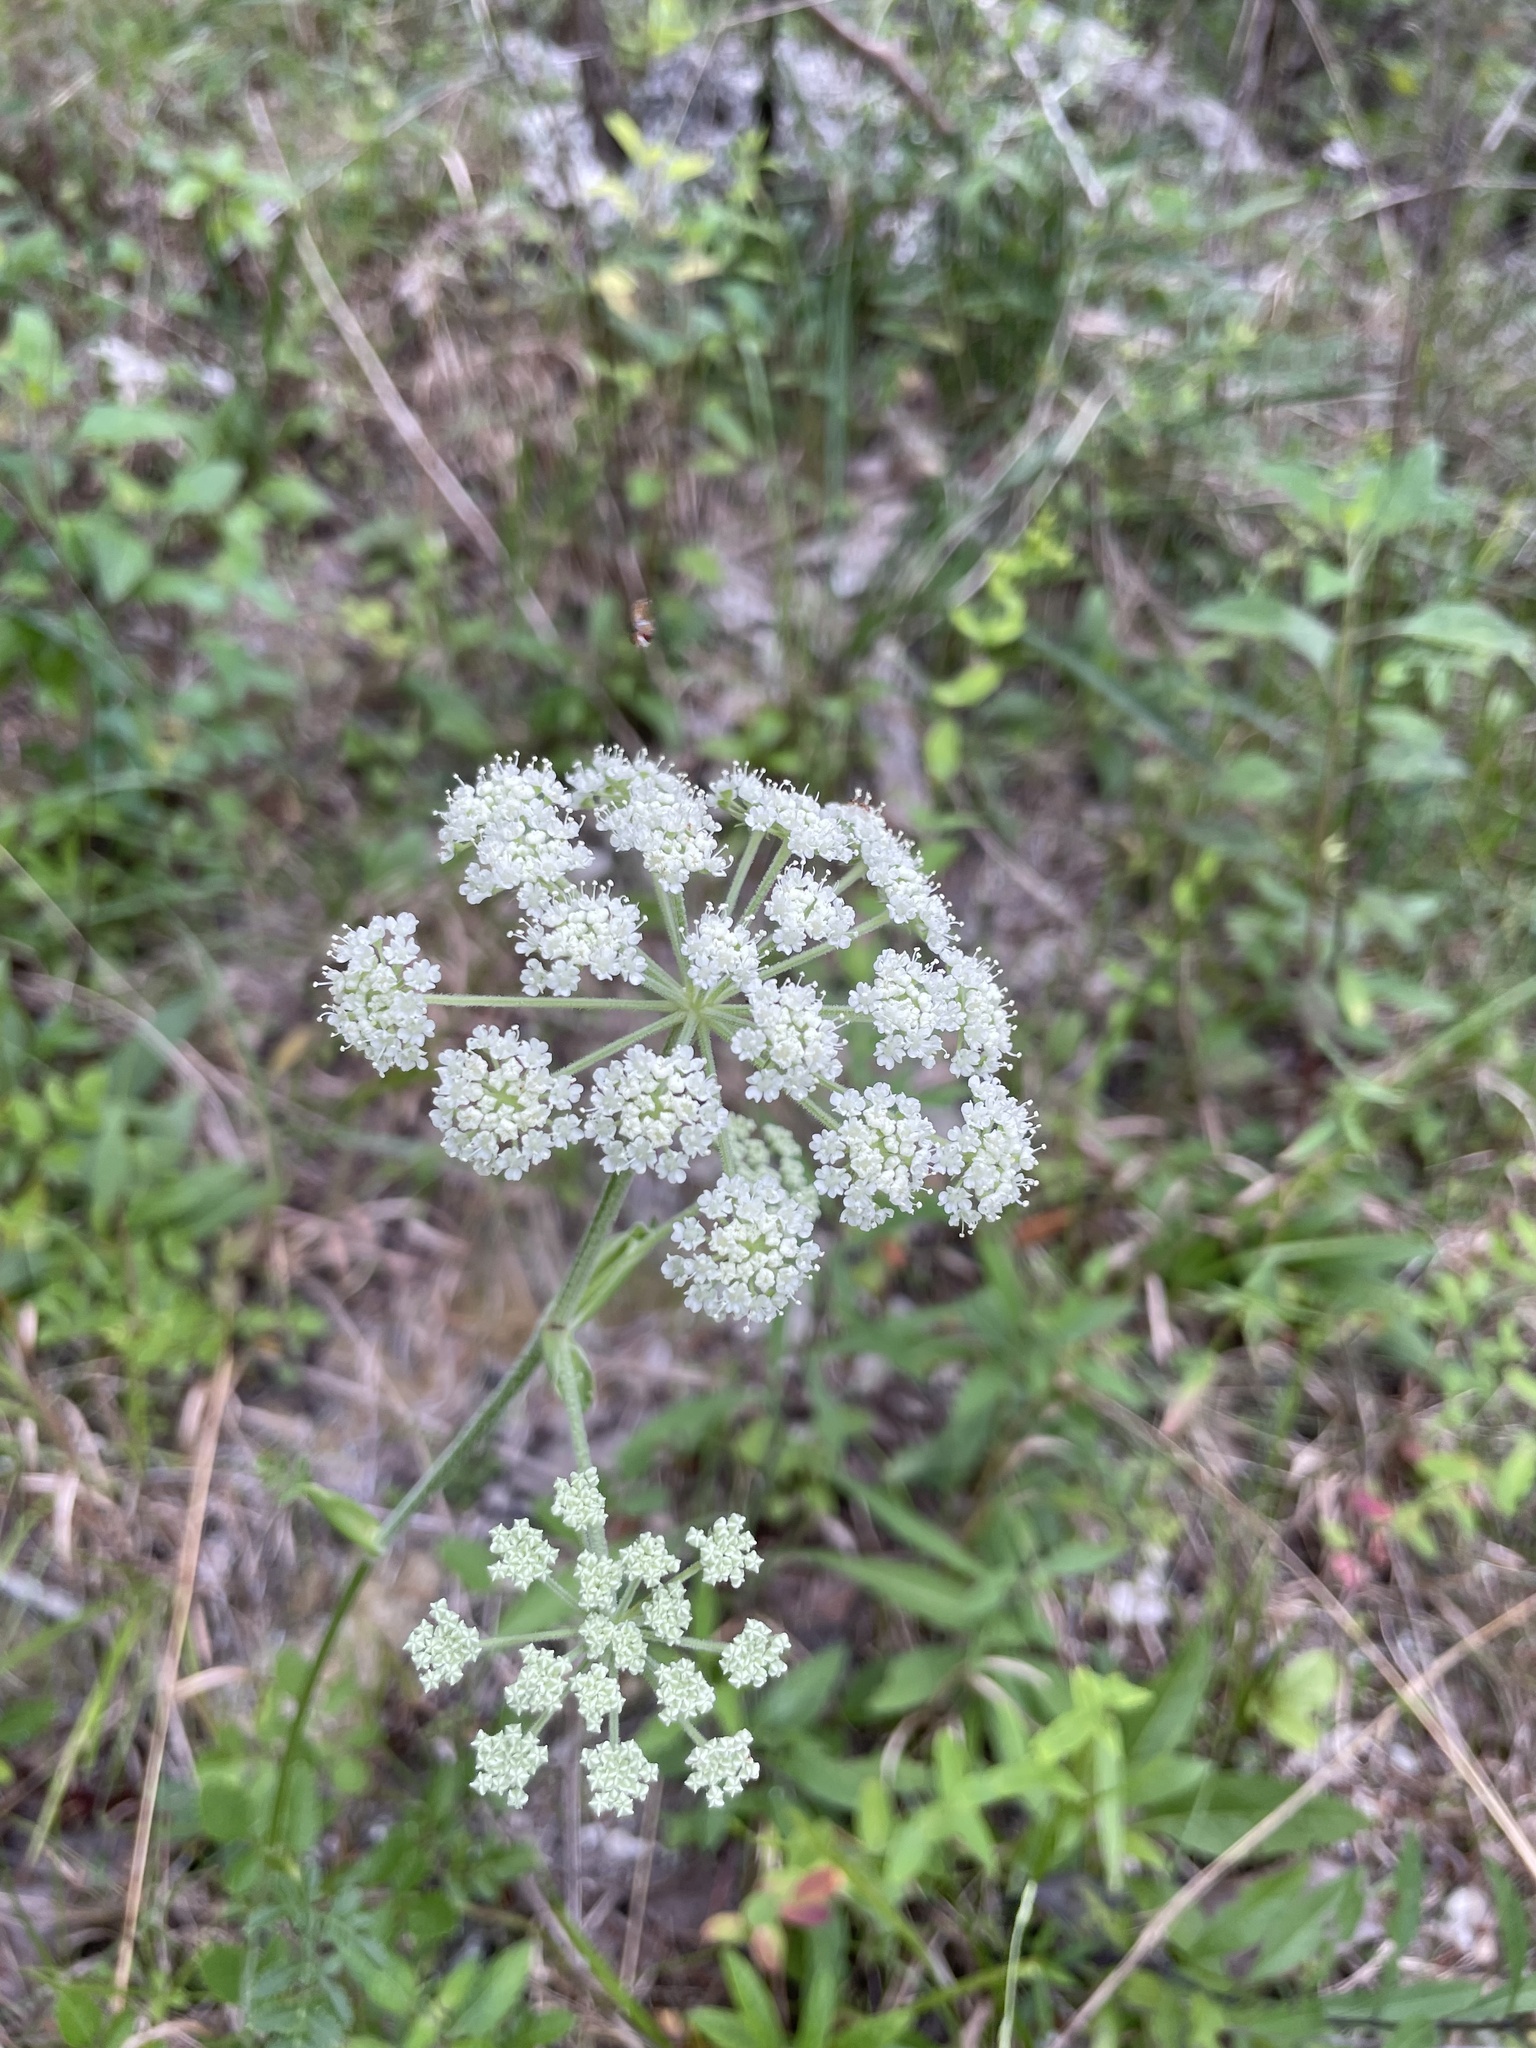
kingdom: Plantae
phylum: Tracheophyta
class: Magnoliopsida
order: Apiales
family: Apiaceae
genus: Angelica
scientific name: Angelica venenosa
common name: Hairy angelica
